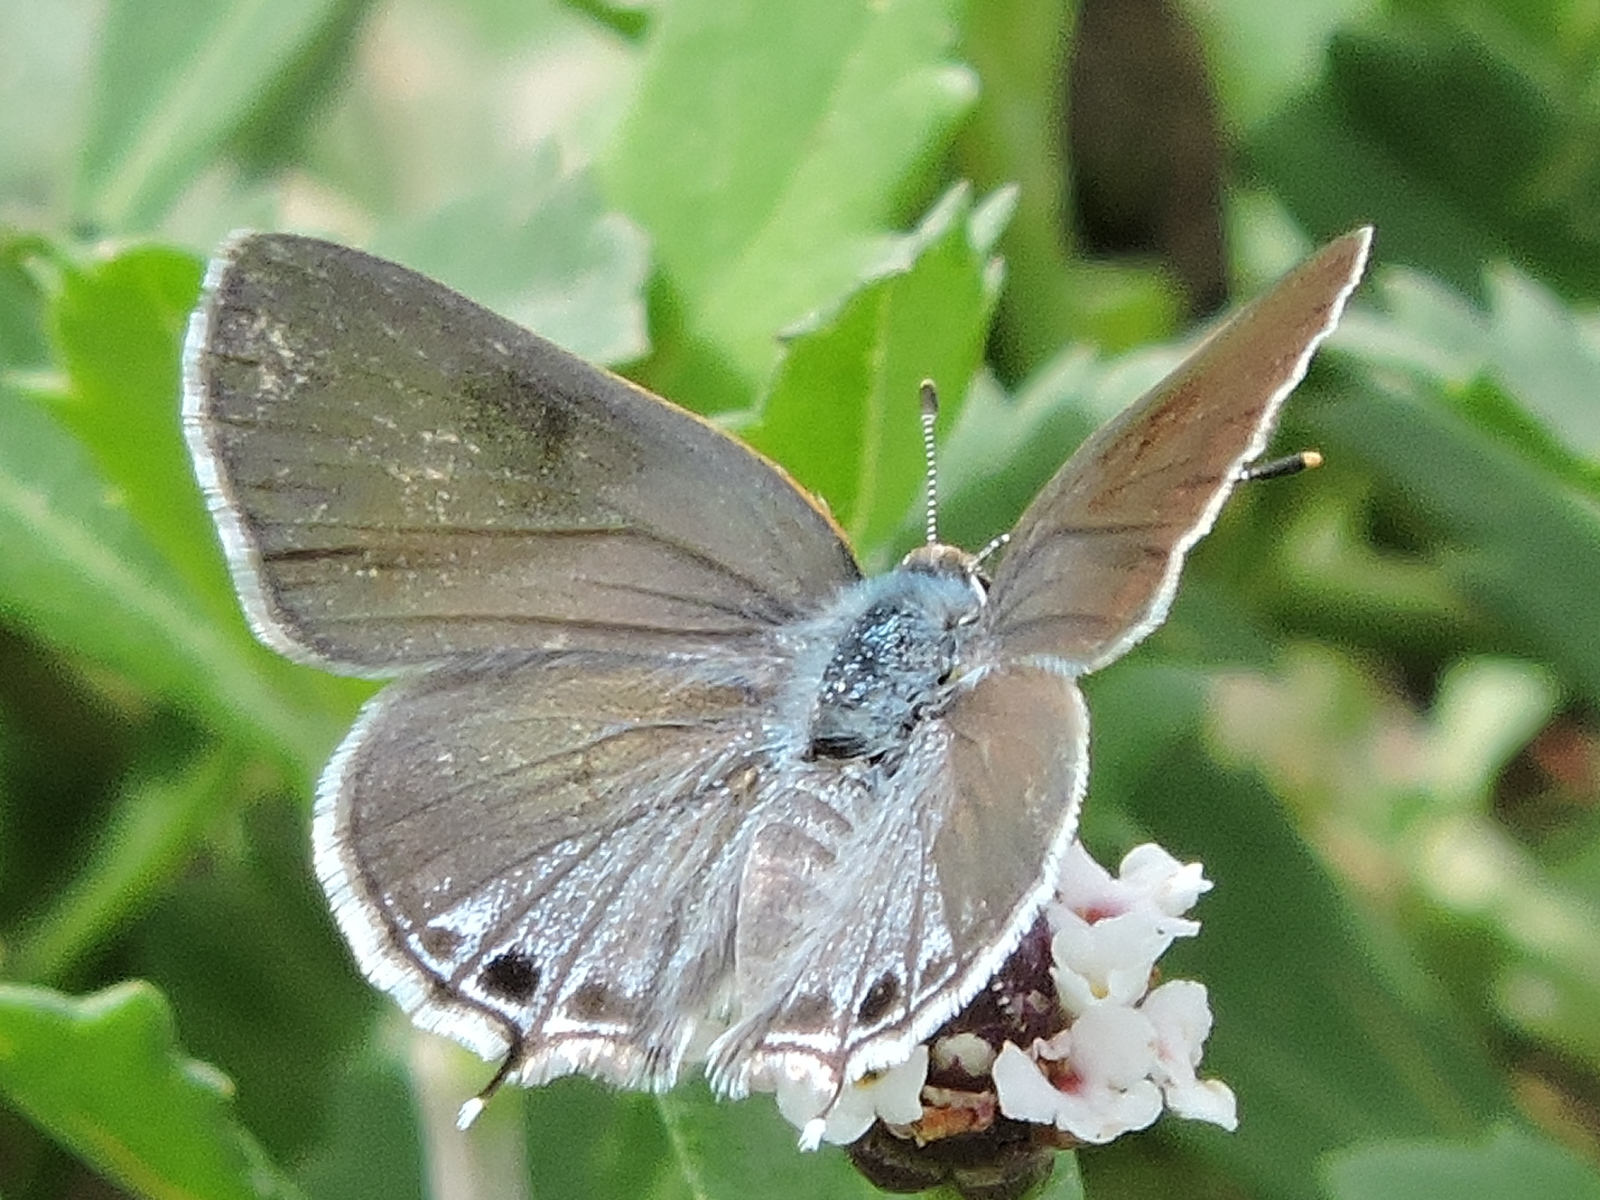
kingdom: Animalia
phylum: Arthropoda
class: Insecta
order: Lepidoptera
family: Lycaenidae
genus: Callicista
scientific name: Callicista columella
